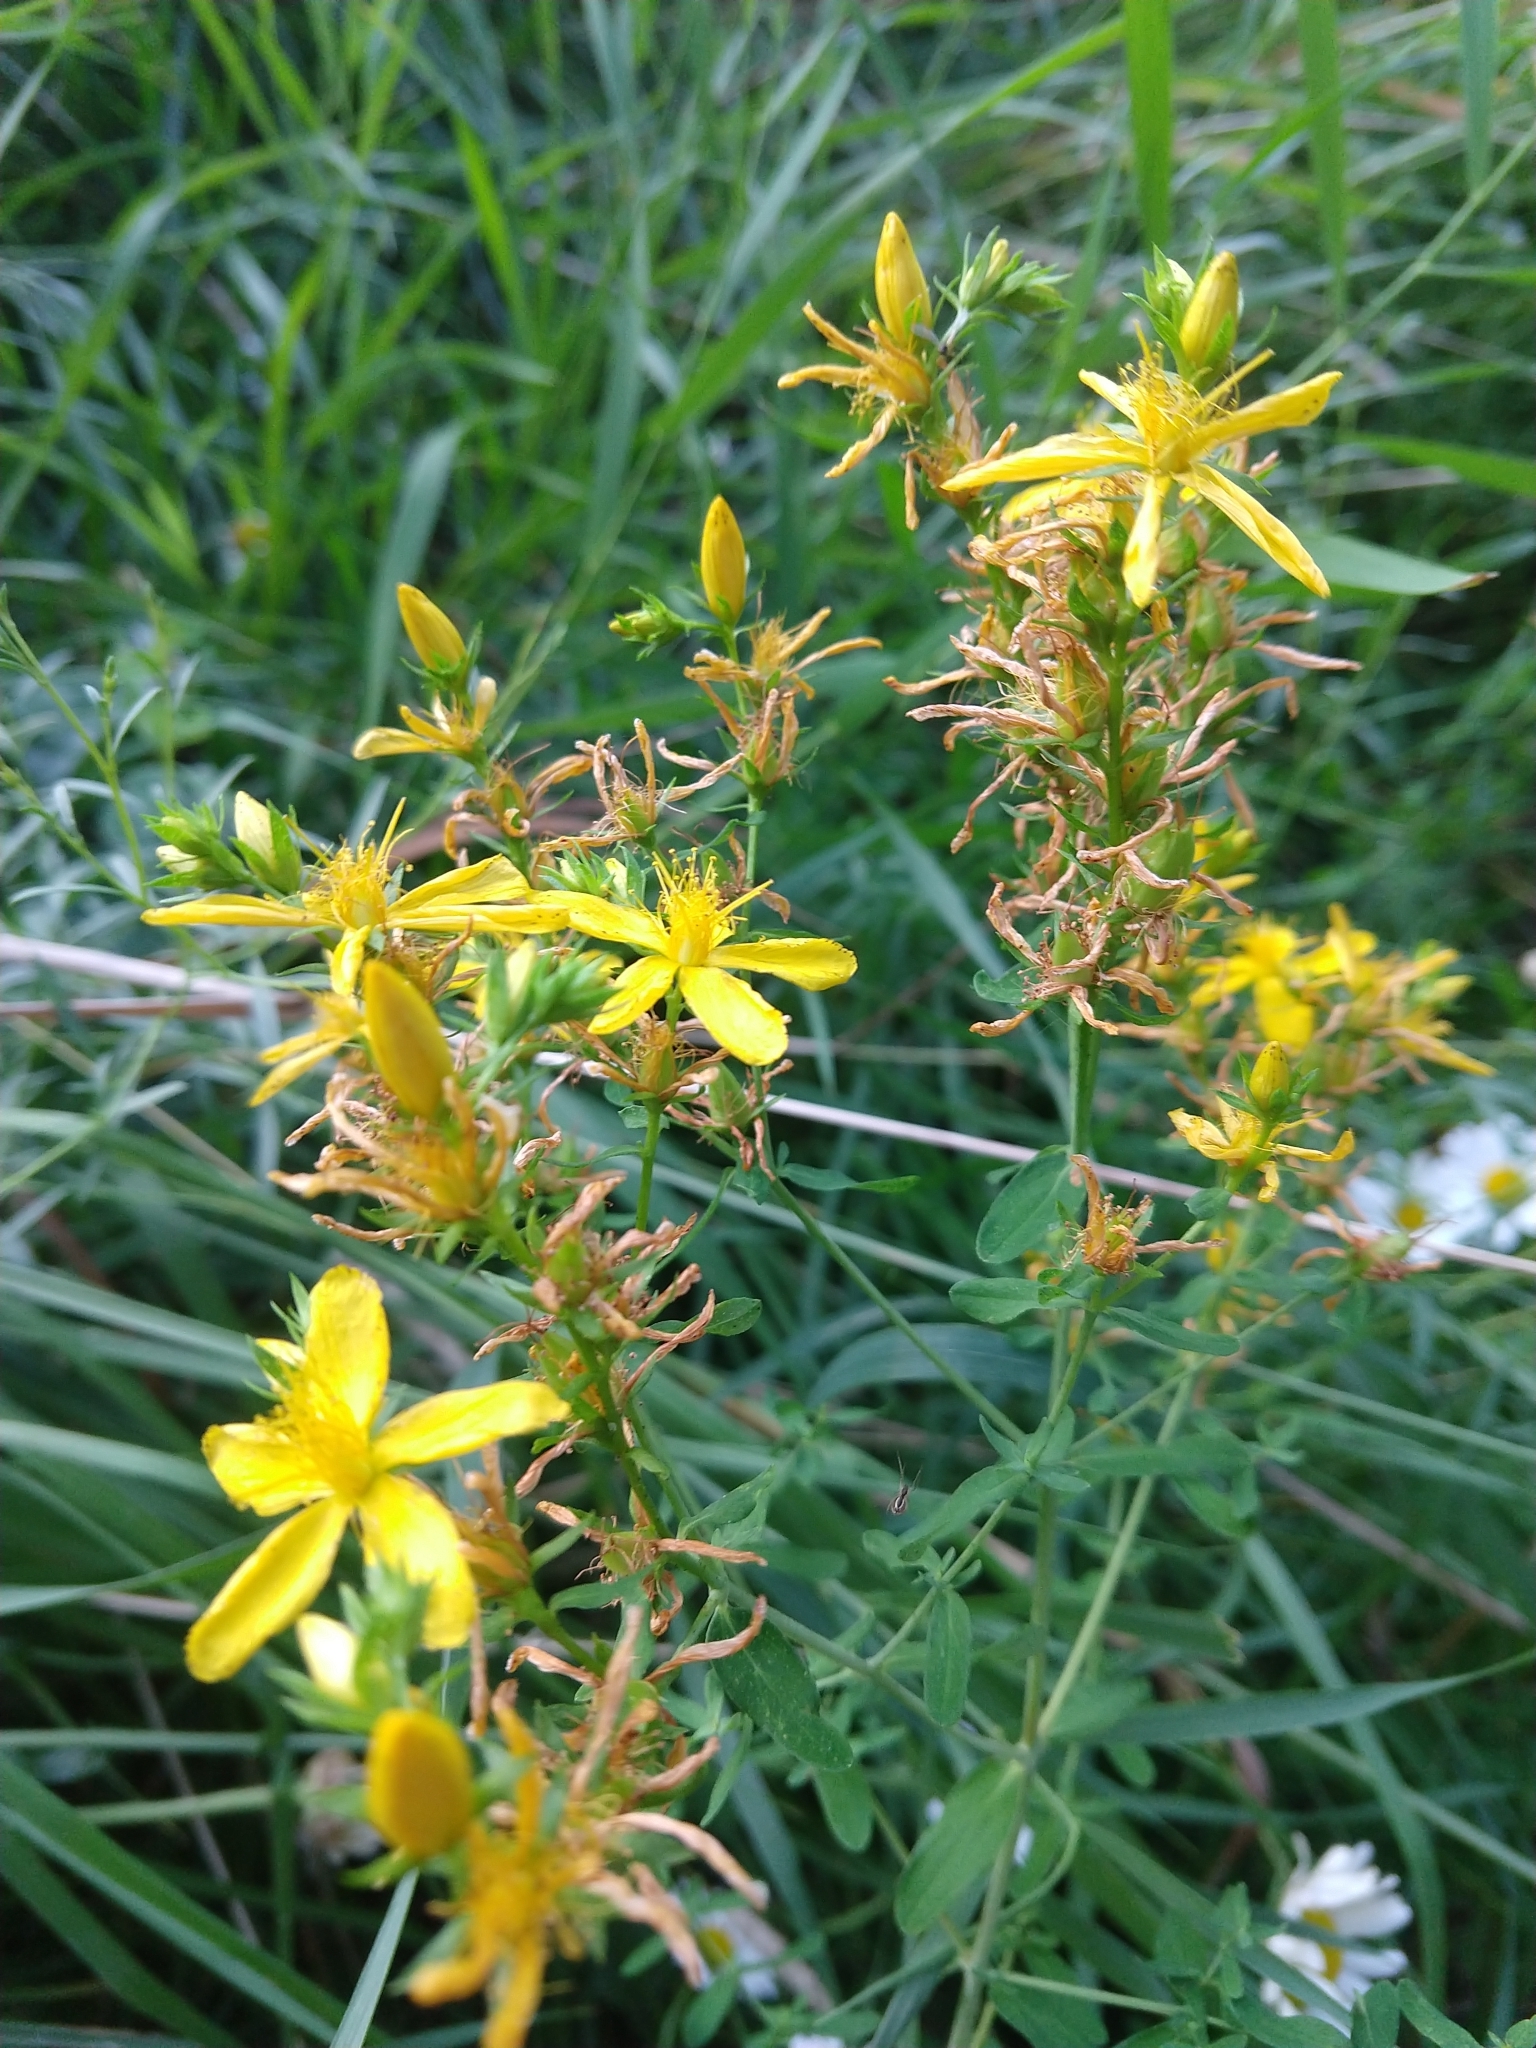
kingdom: Plantae
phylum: Tracheophyta
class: Magnoliopsida
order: Malpighiales
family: Hypericaceae
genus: Hypericum
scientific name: Hypericum perforatum
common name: Common st. johnswort
